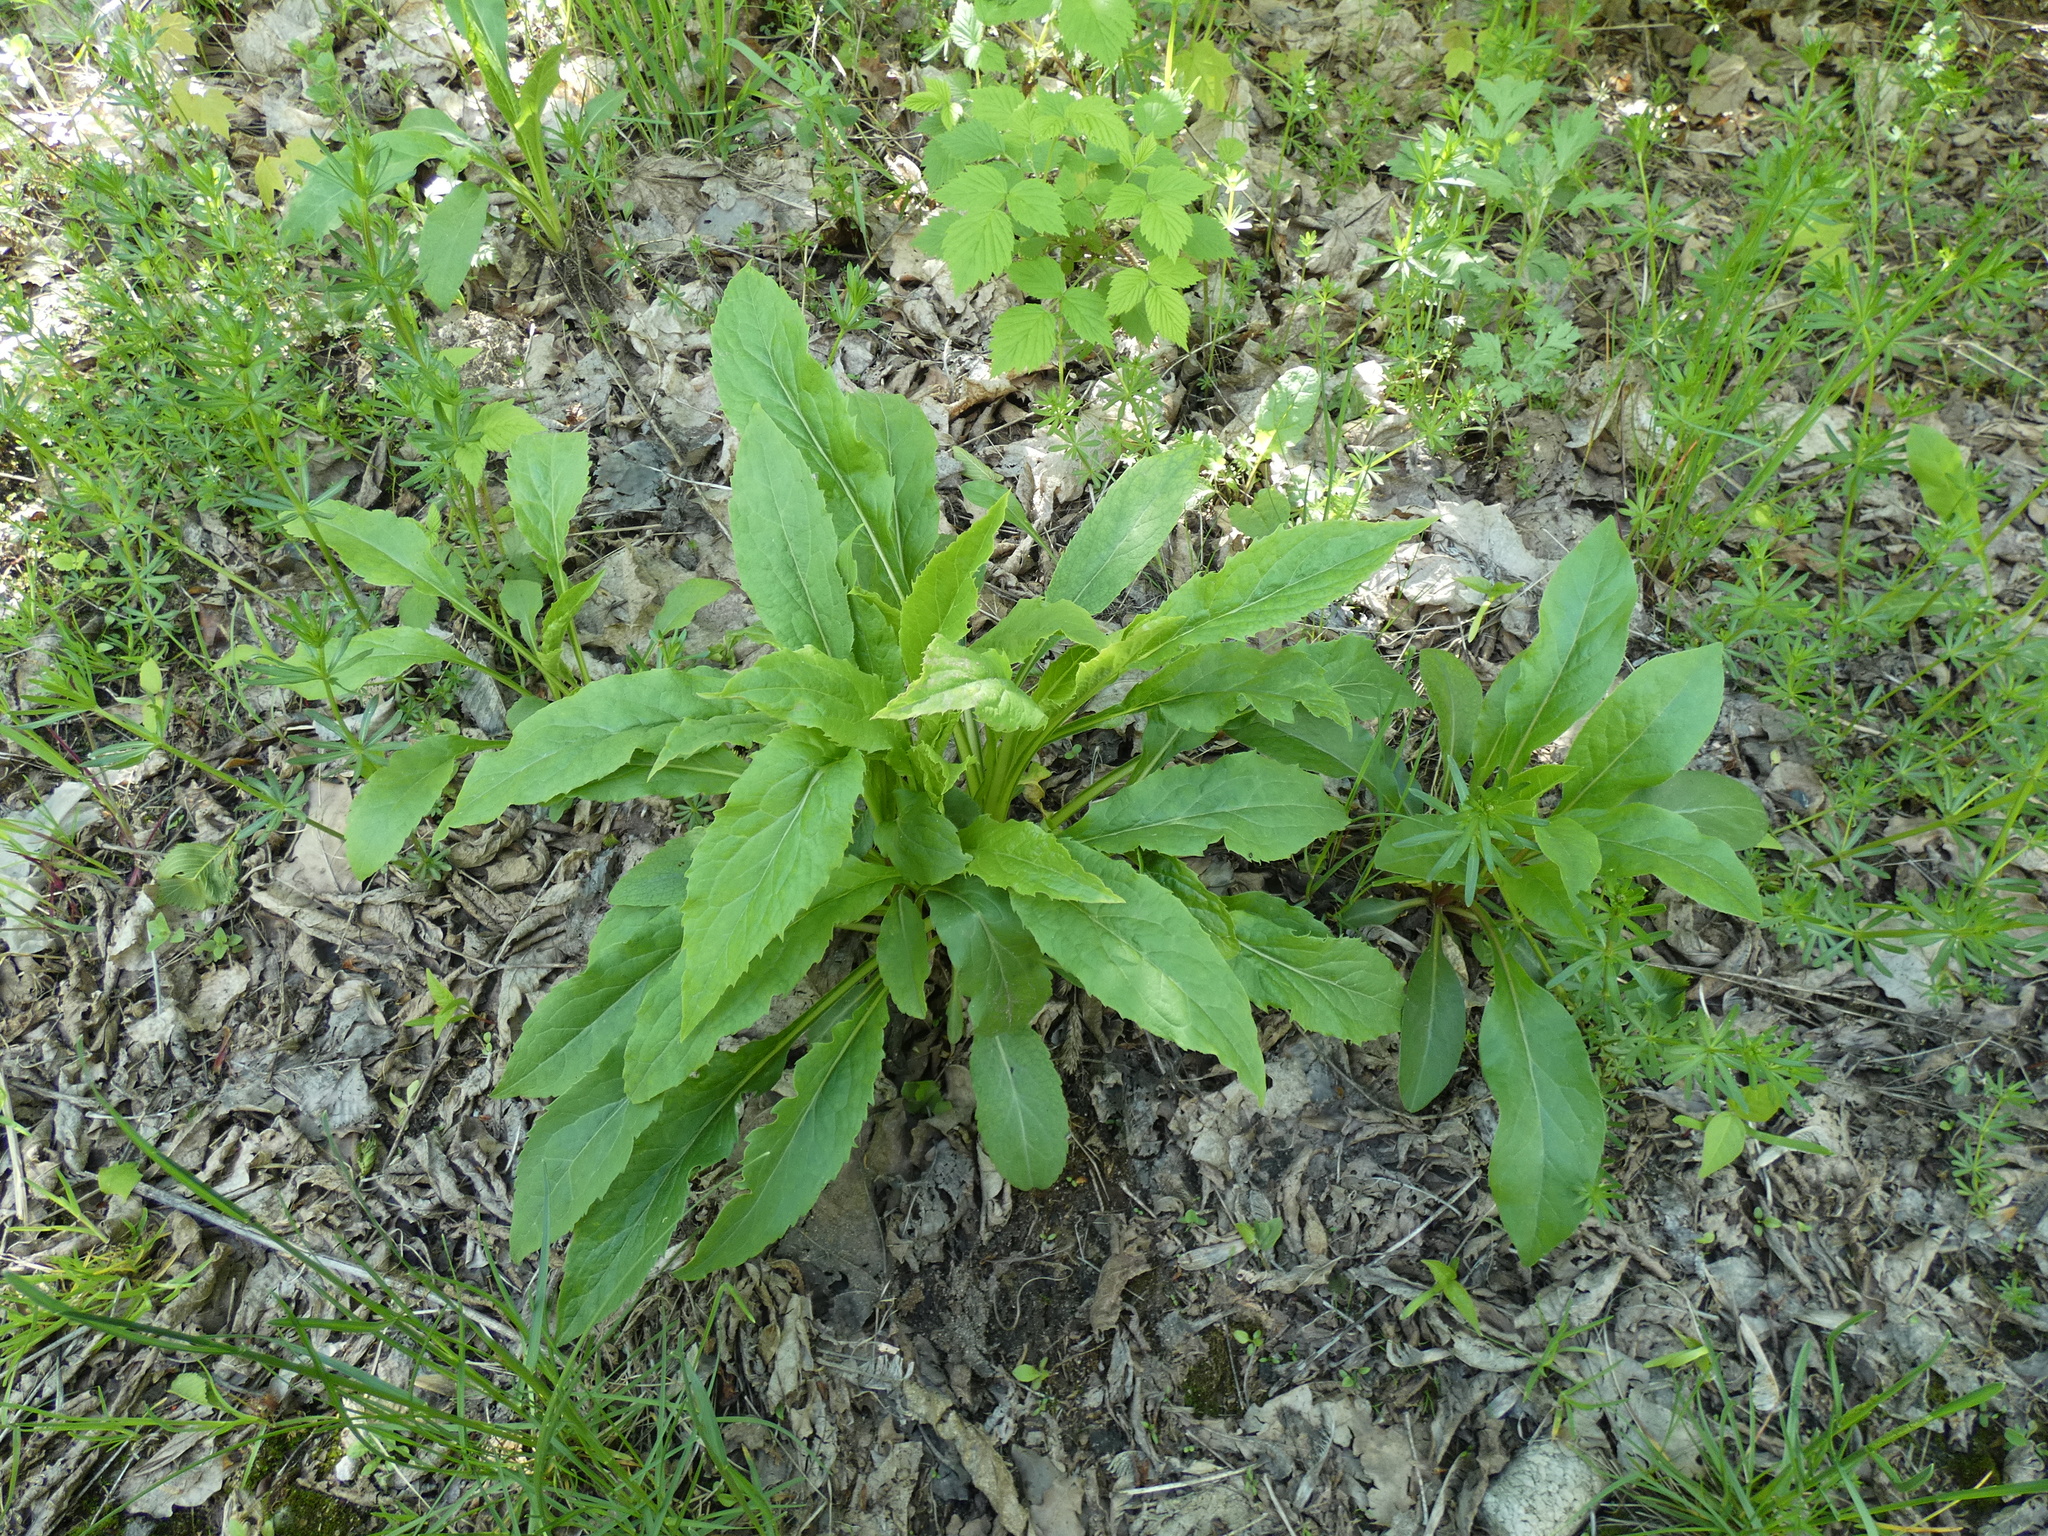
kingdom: Plantae
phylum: Tracheophyta
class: Magnoliopsida
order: Asterales
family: Asteraceae
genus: Solidago
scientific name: Solidago virgaurea
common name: Goldenrod
